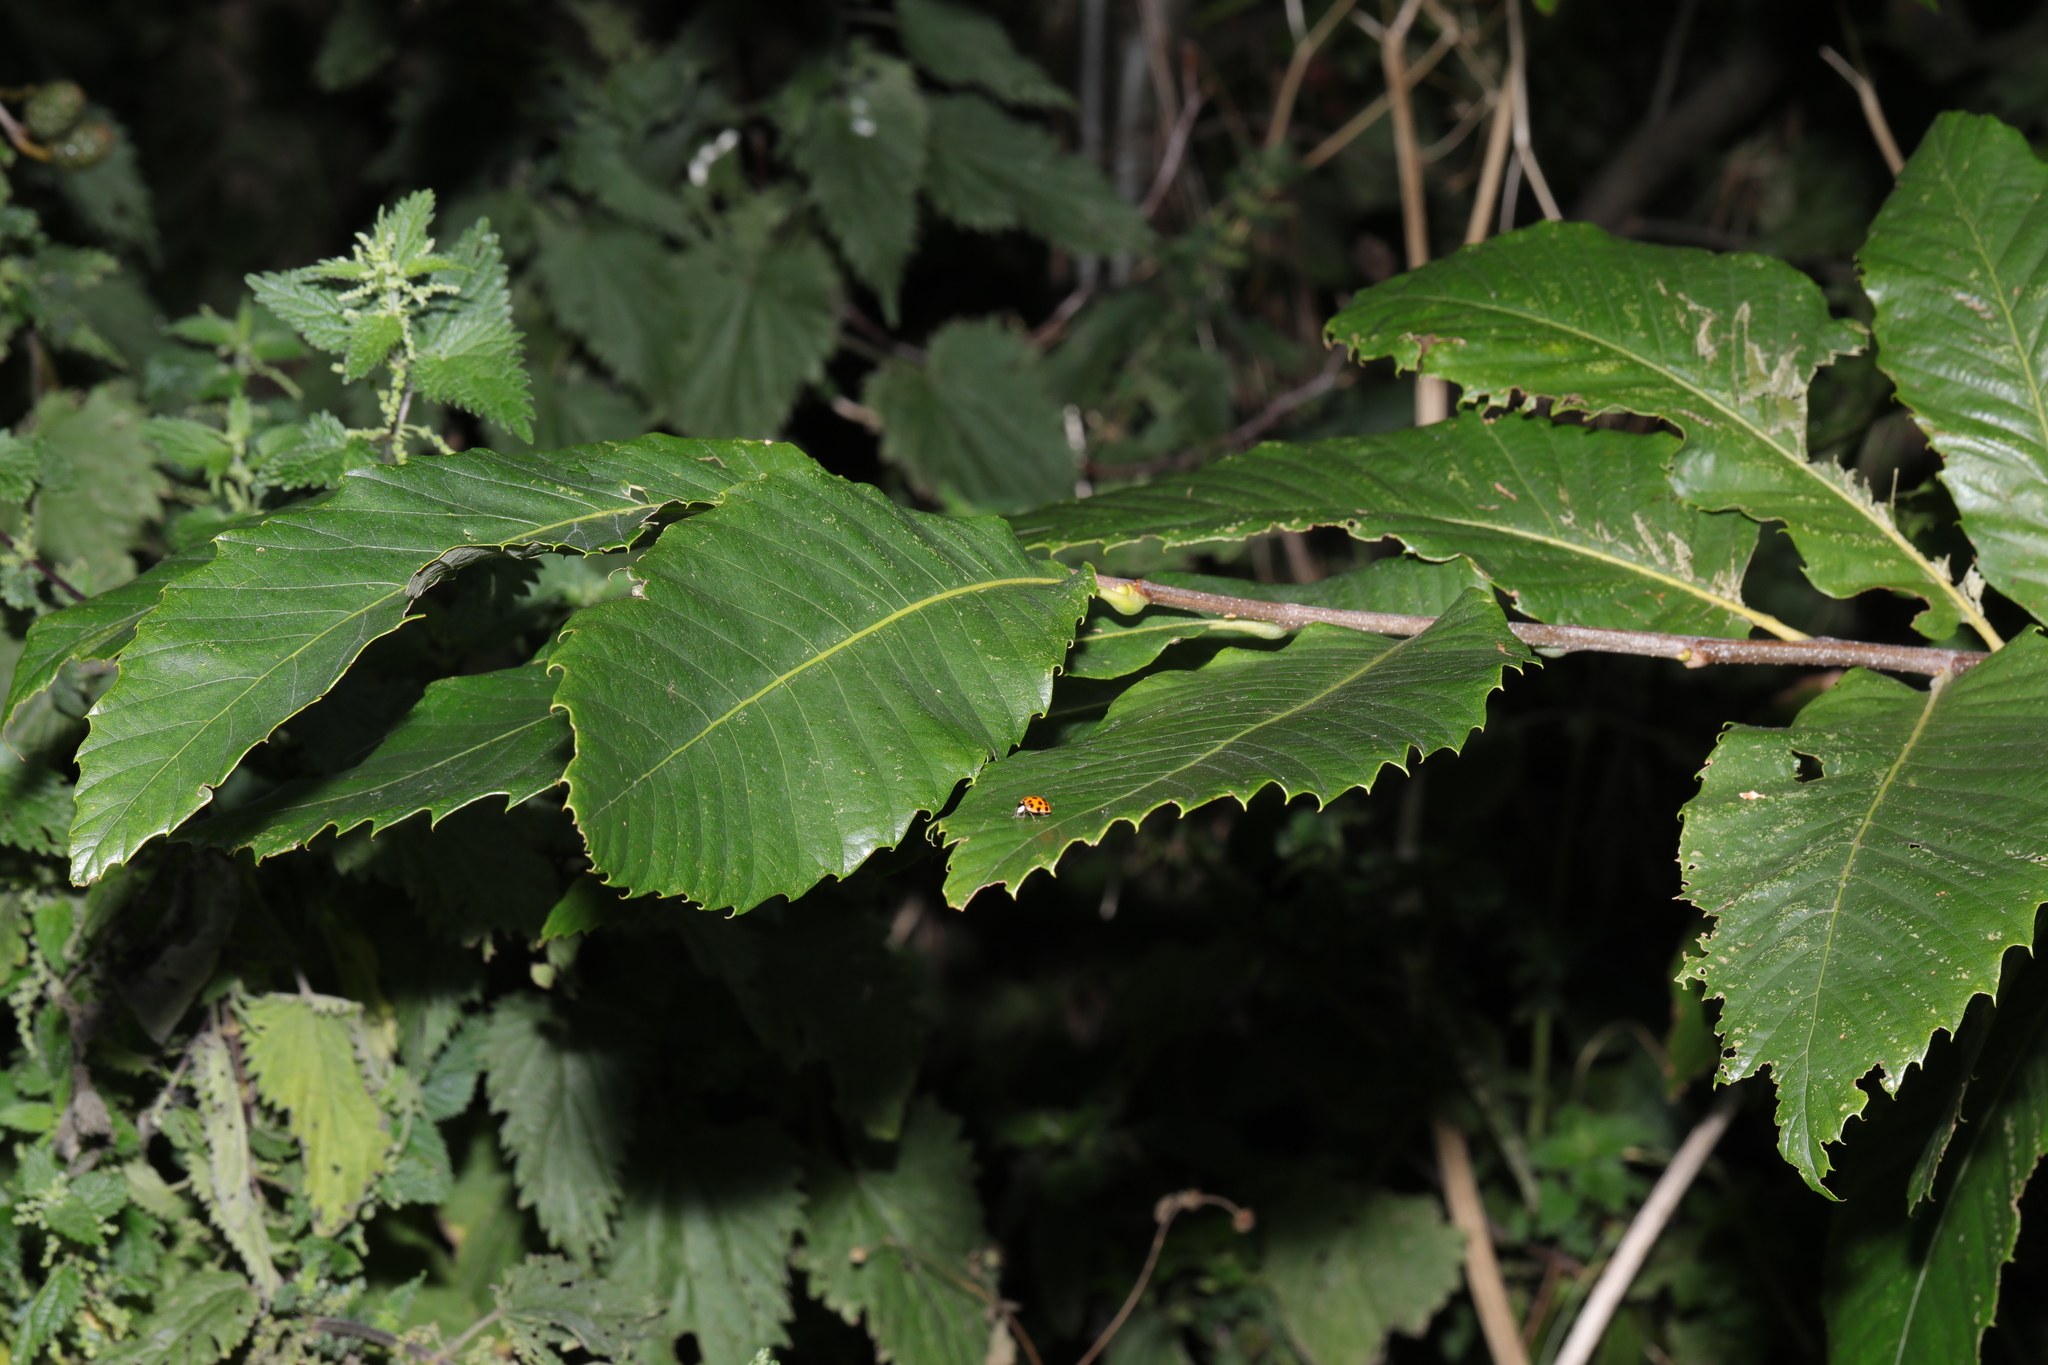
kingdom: Plantae
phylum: Tracheophyta
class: Magnoliopsida
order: Fagales
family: Fagaceae
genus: Castanea
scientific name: Castanea sativa
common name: Sweet chestnut
